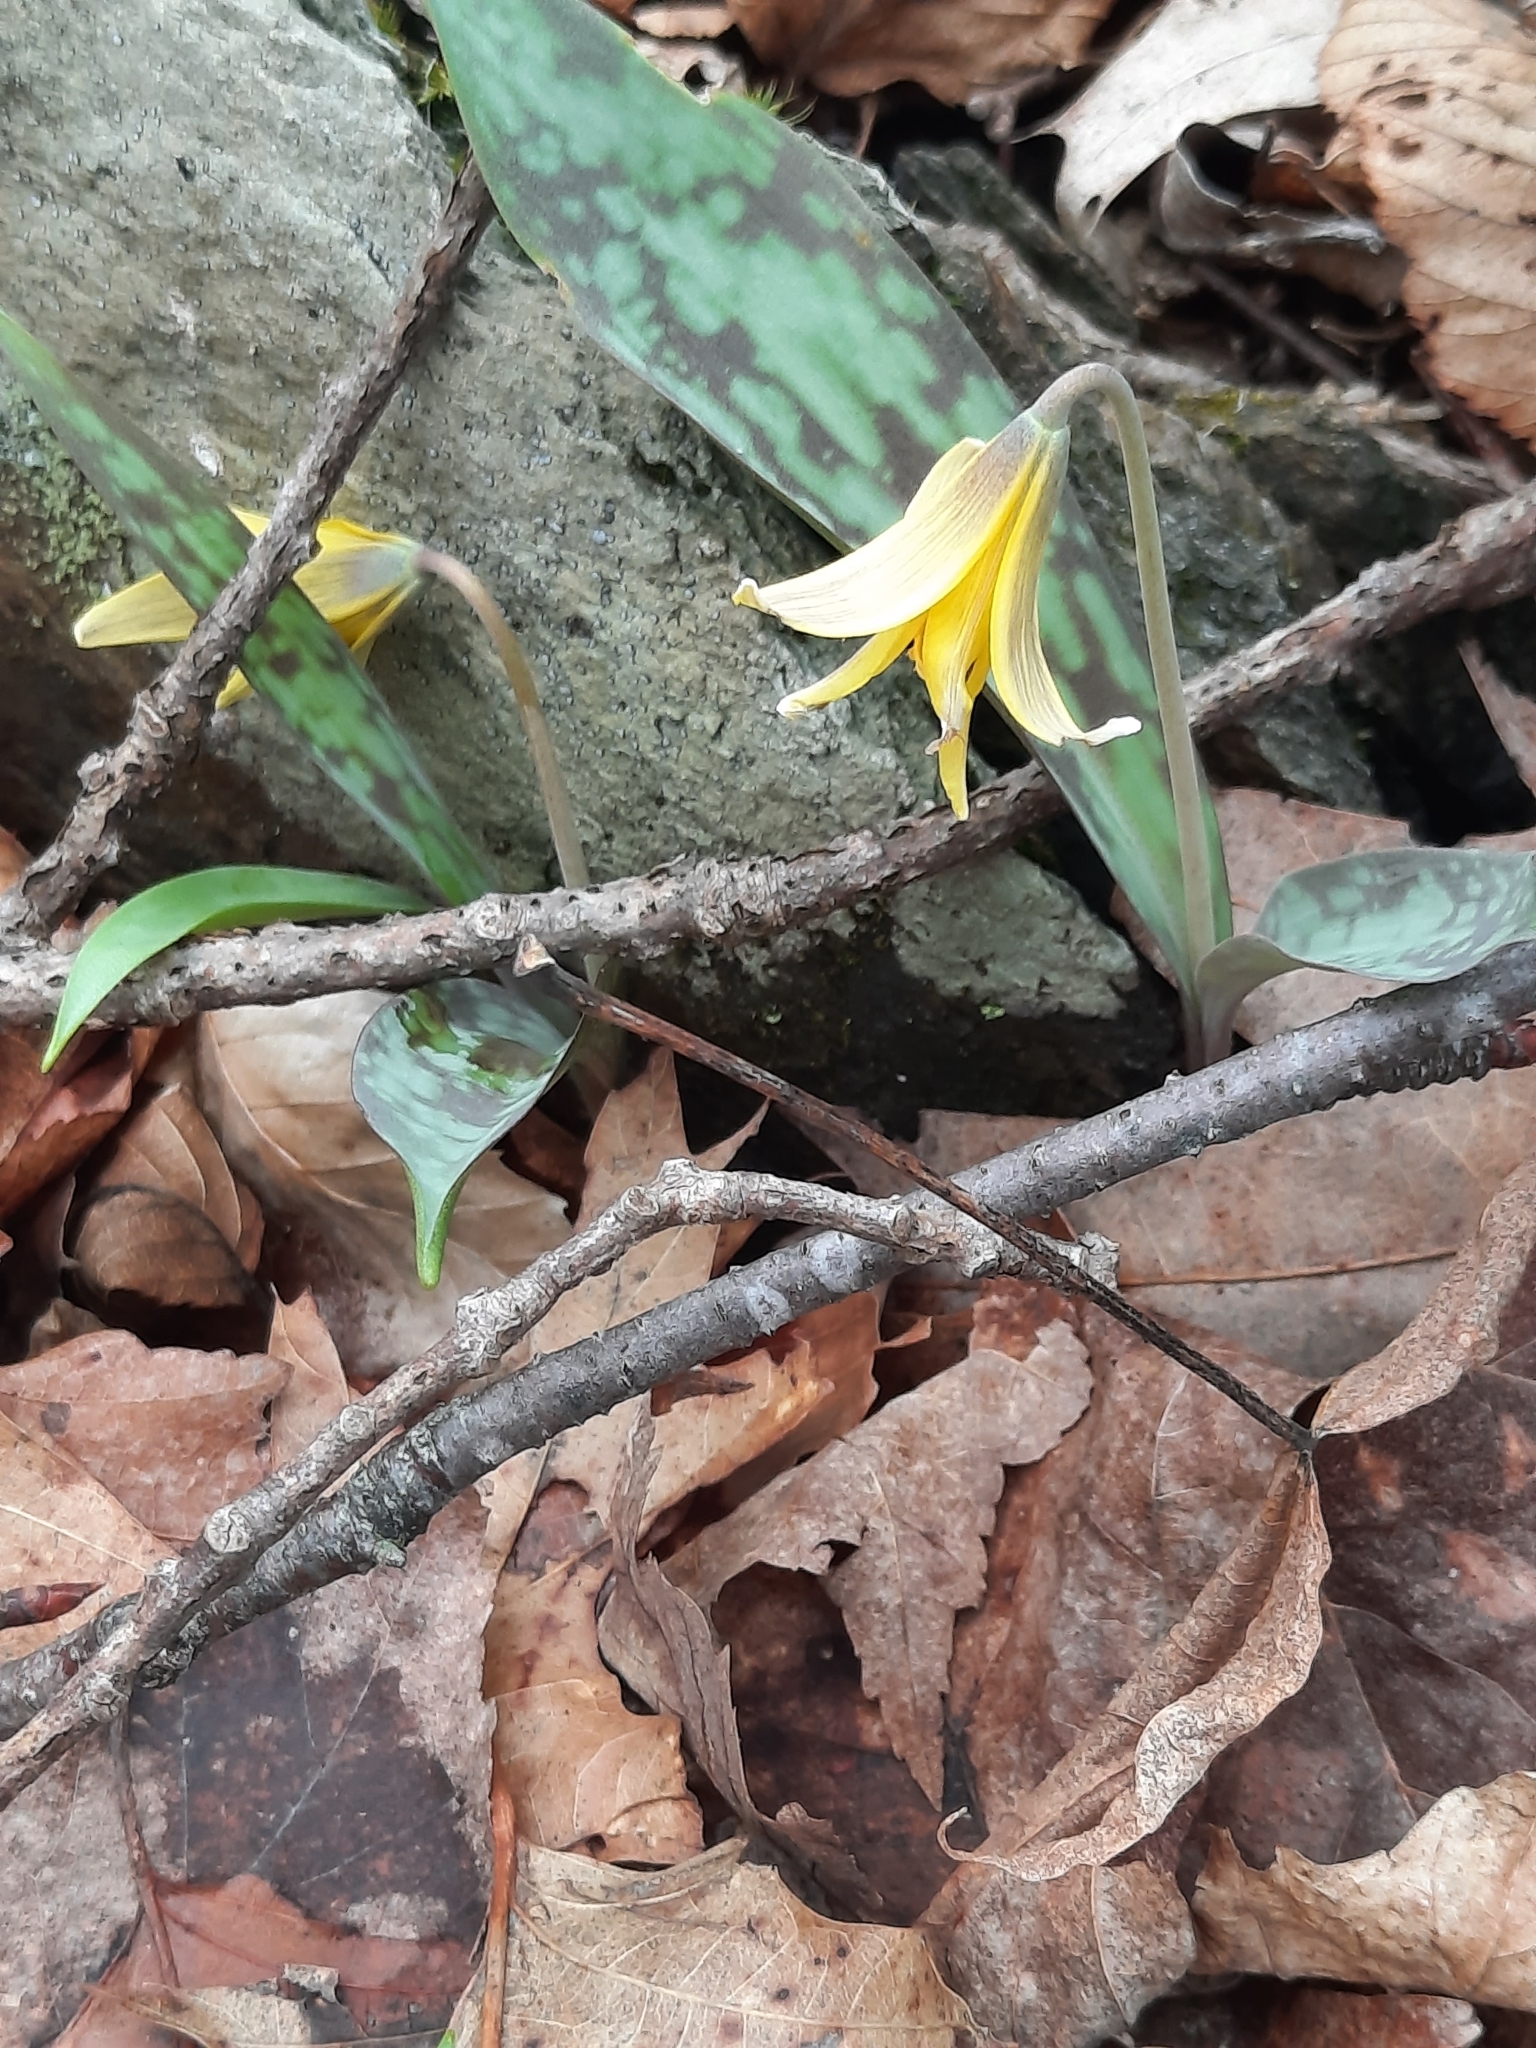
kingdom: Plantae
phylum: Tracheophyta
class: Liliopsida
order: Liliales
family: Liliaceae
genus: Erythronium
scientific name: Erythronium americanum
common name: Yellow adder's-tongue
